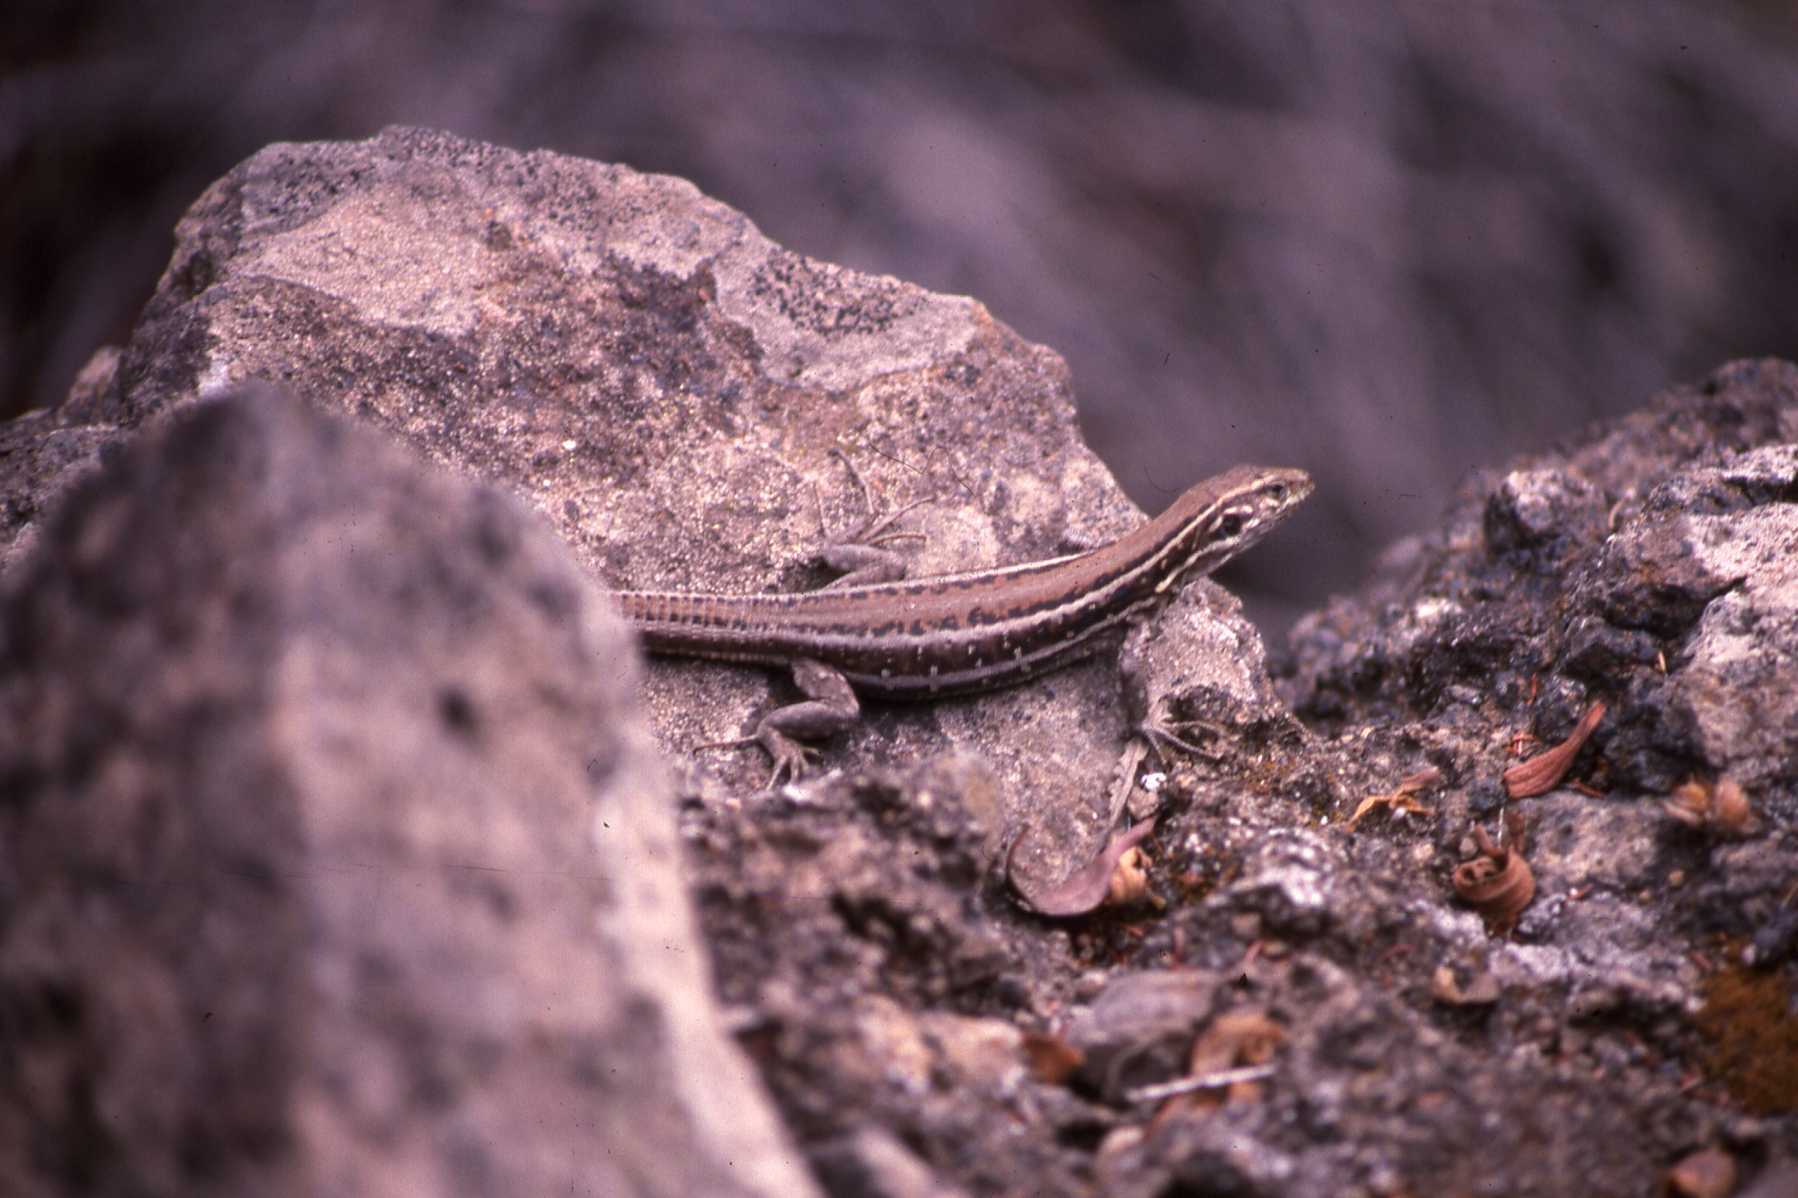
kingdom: Animalia
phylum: Chordata
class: Squamata
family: Lacertidae
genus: Gallotia
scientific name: Gallotia galloti
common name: Gallot's lizard
